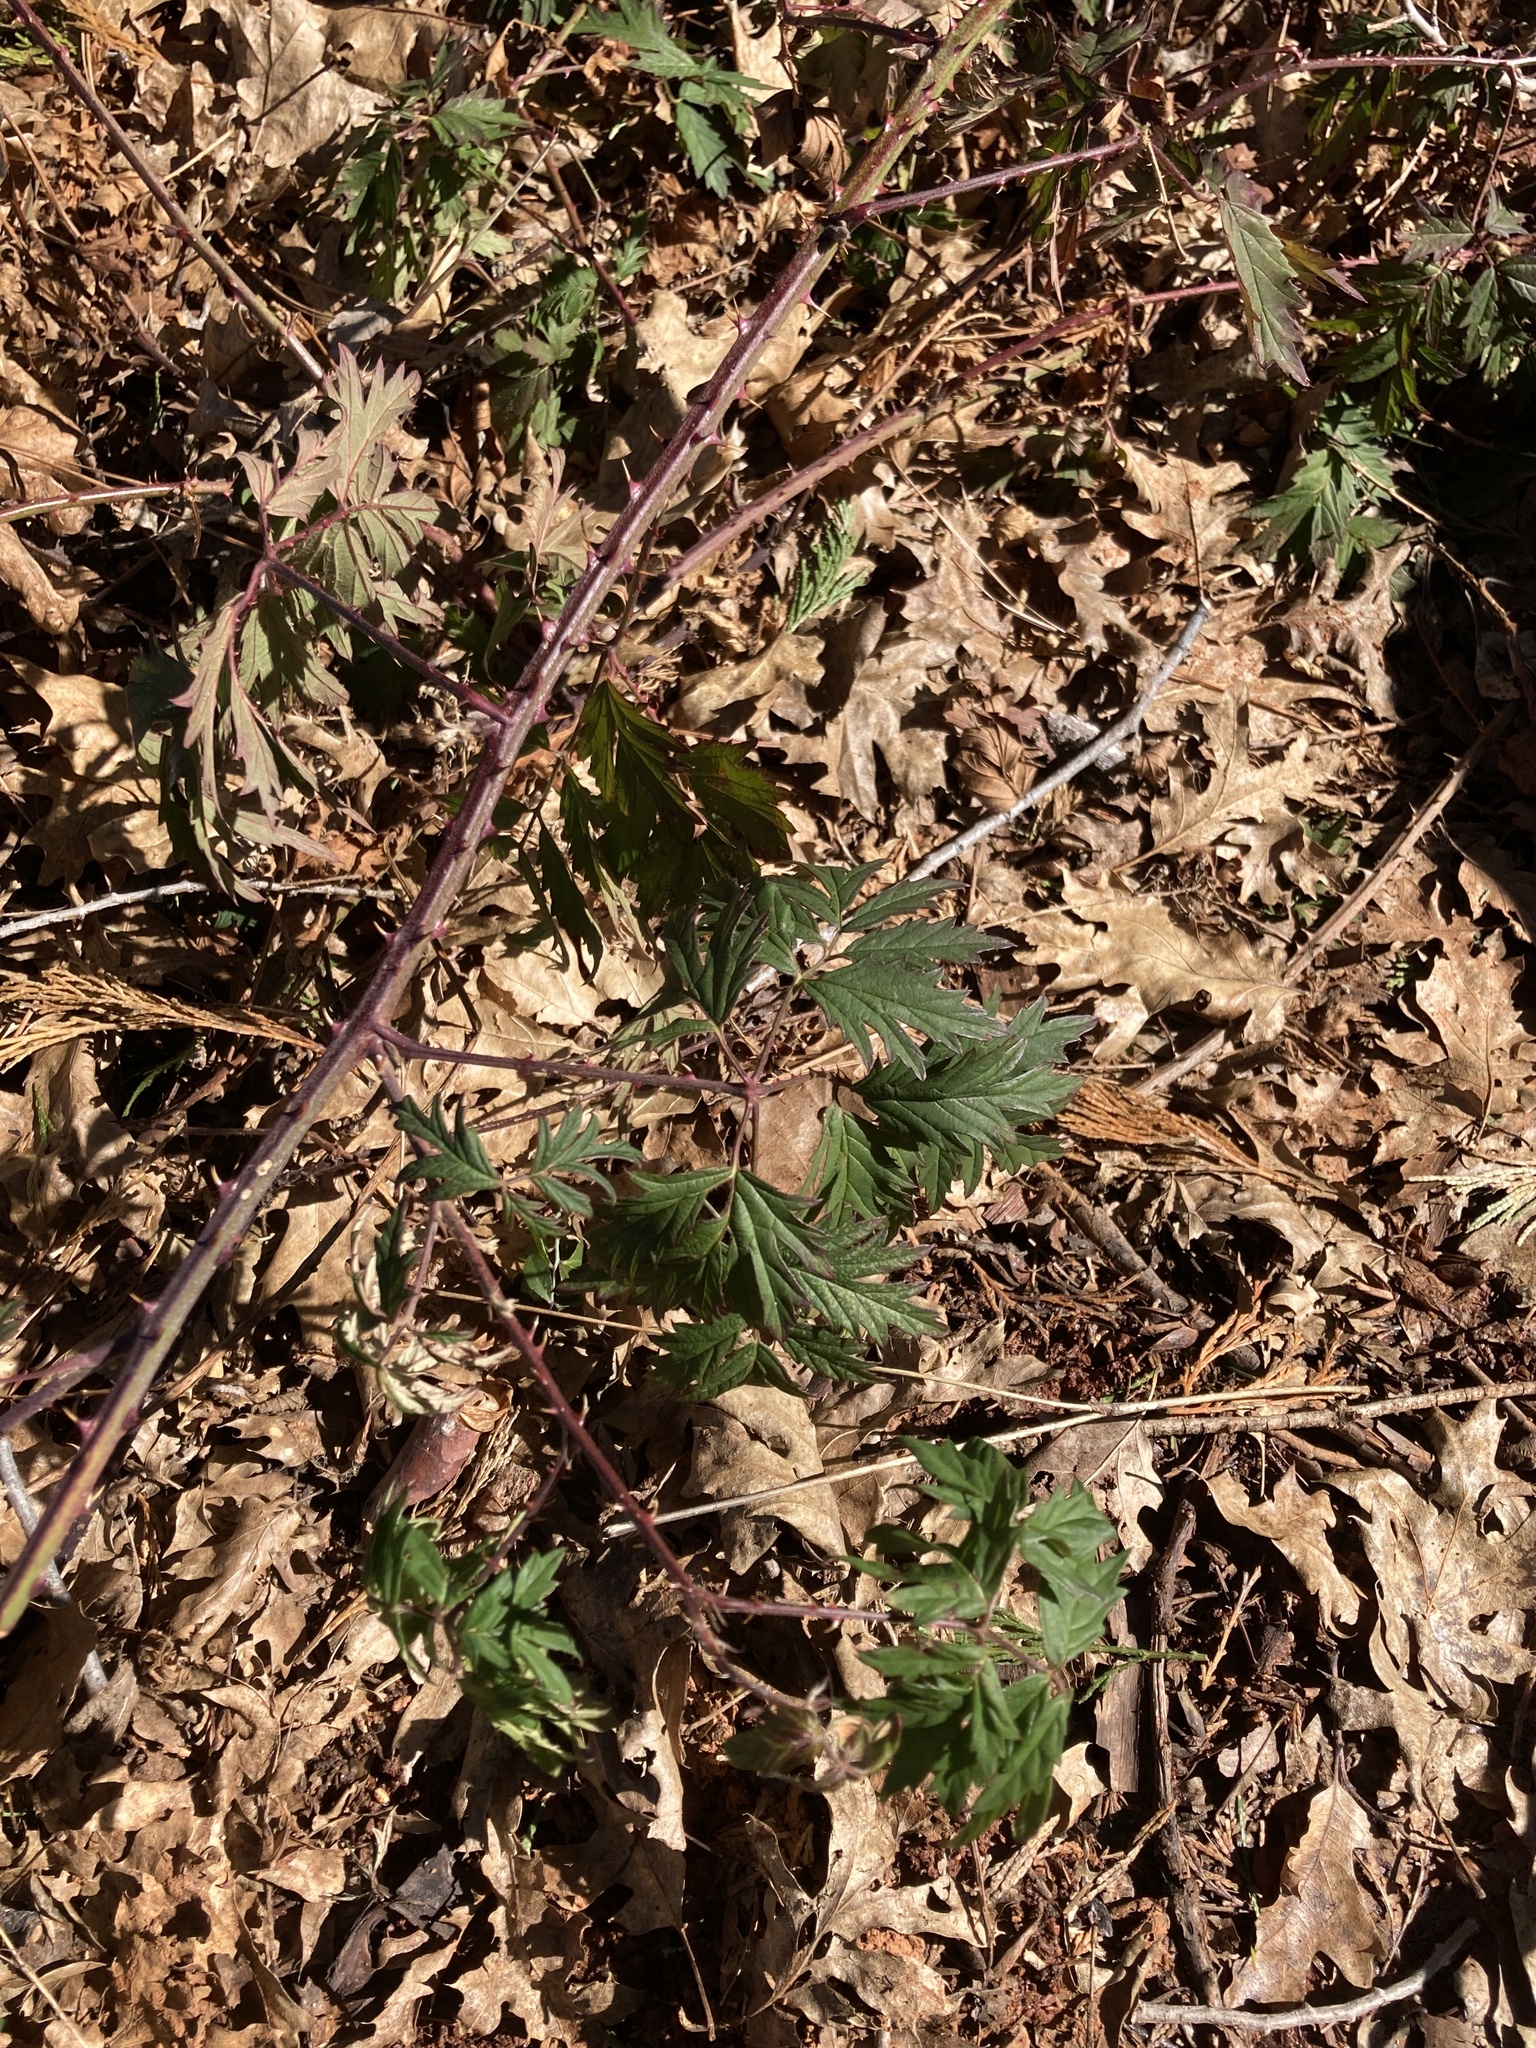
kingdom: Plantae
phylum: Tracheophyta
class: Magnoliopsida
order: Rosales
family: Rosaceae
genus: Rubus
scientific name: Rubus laciniatus
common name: Evergreen blackberry
